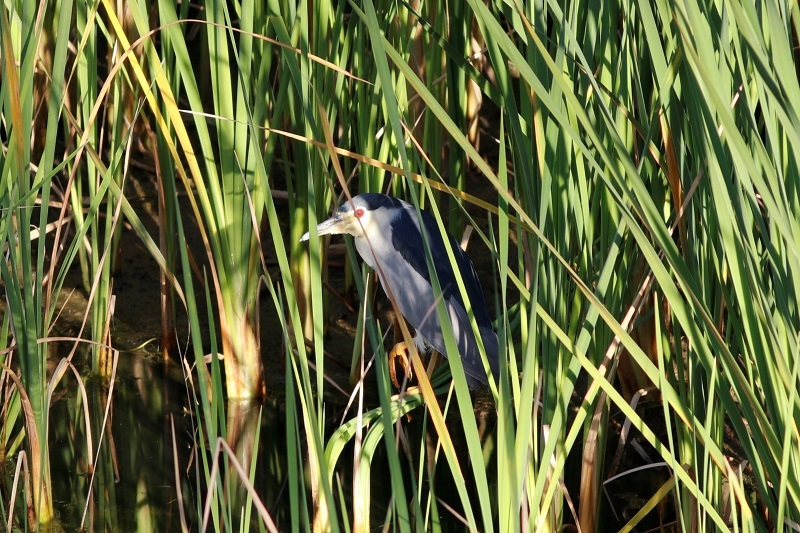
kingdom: Animalia
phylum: Chordata
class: Aves
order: Pelecaniformes
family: Ardeidae
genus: Nycticorax
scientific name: Nycticorax nycticorax
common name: Black-crowned night heron
